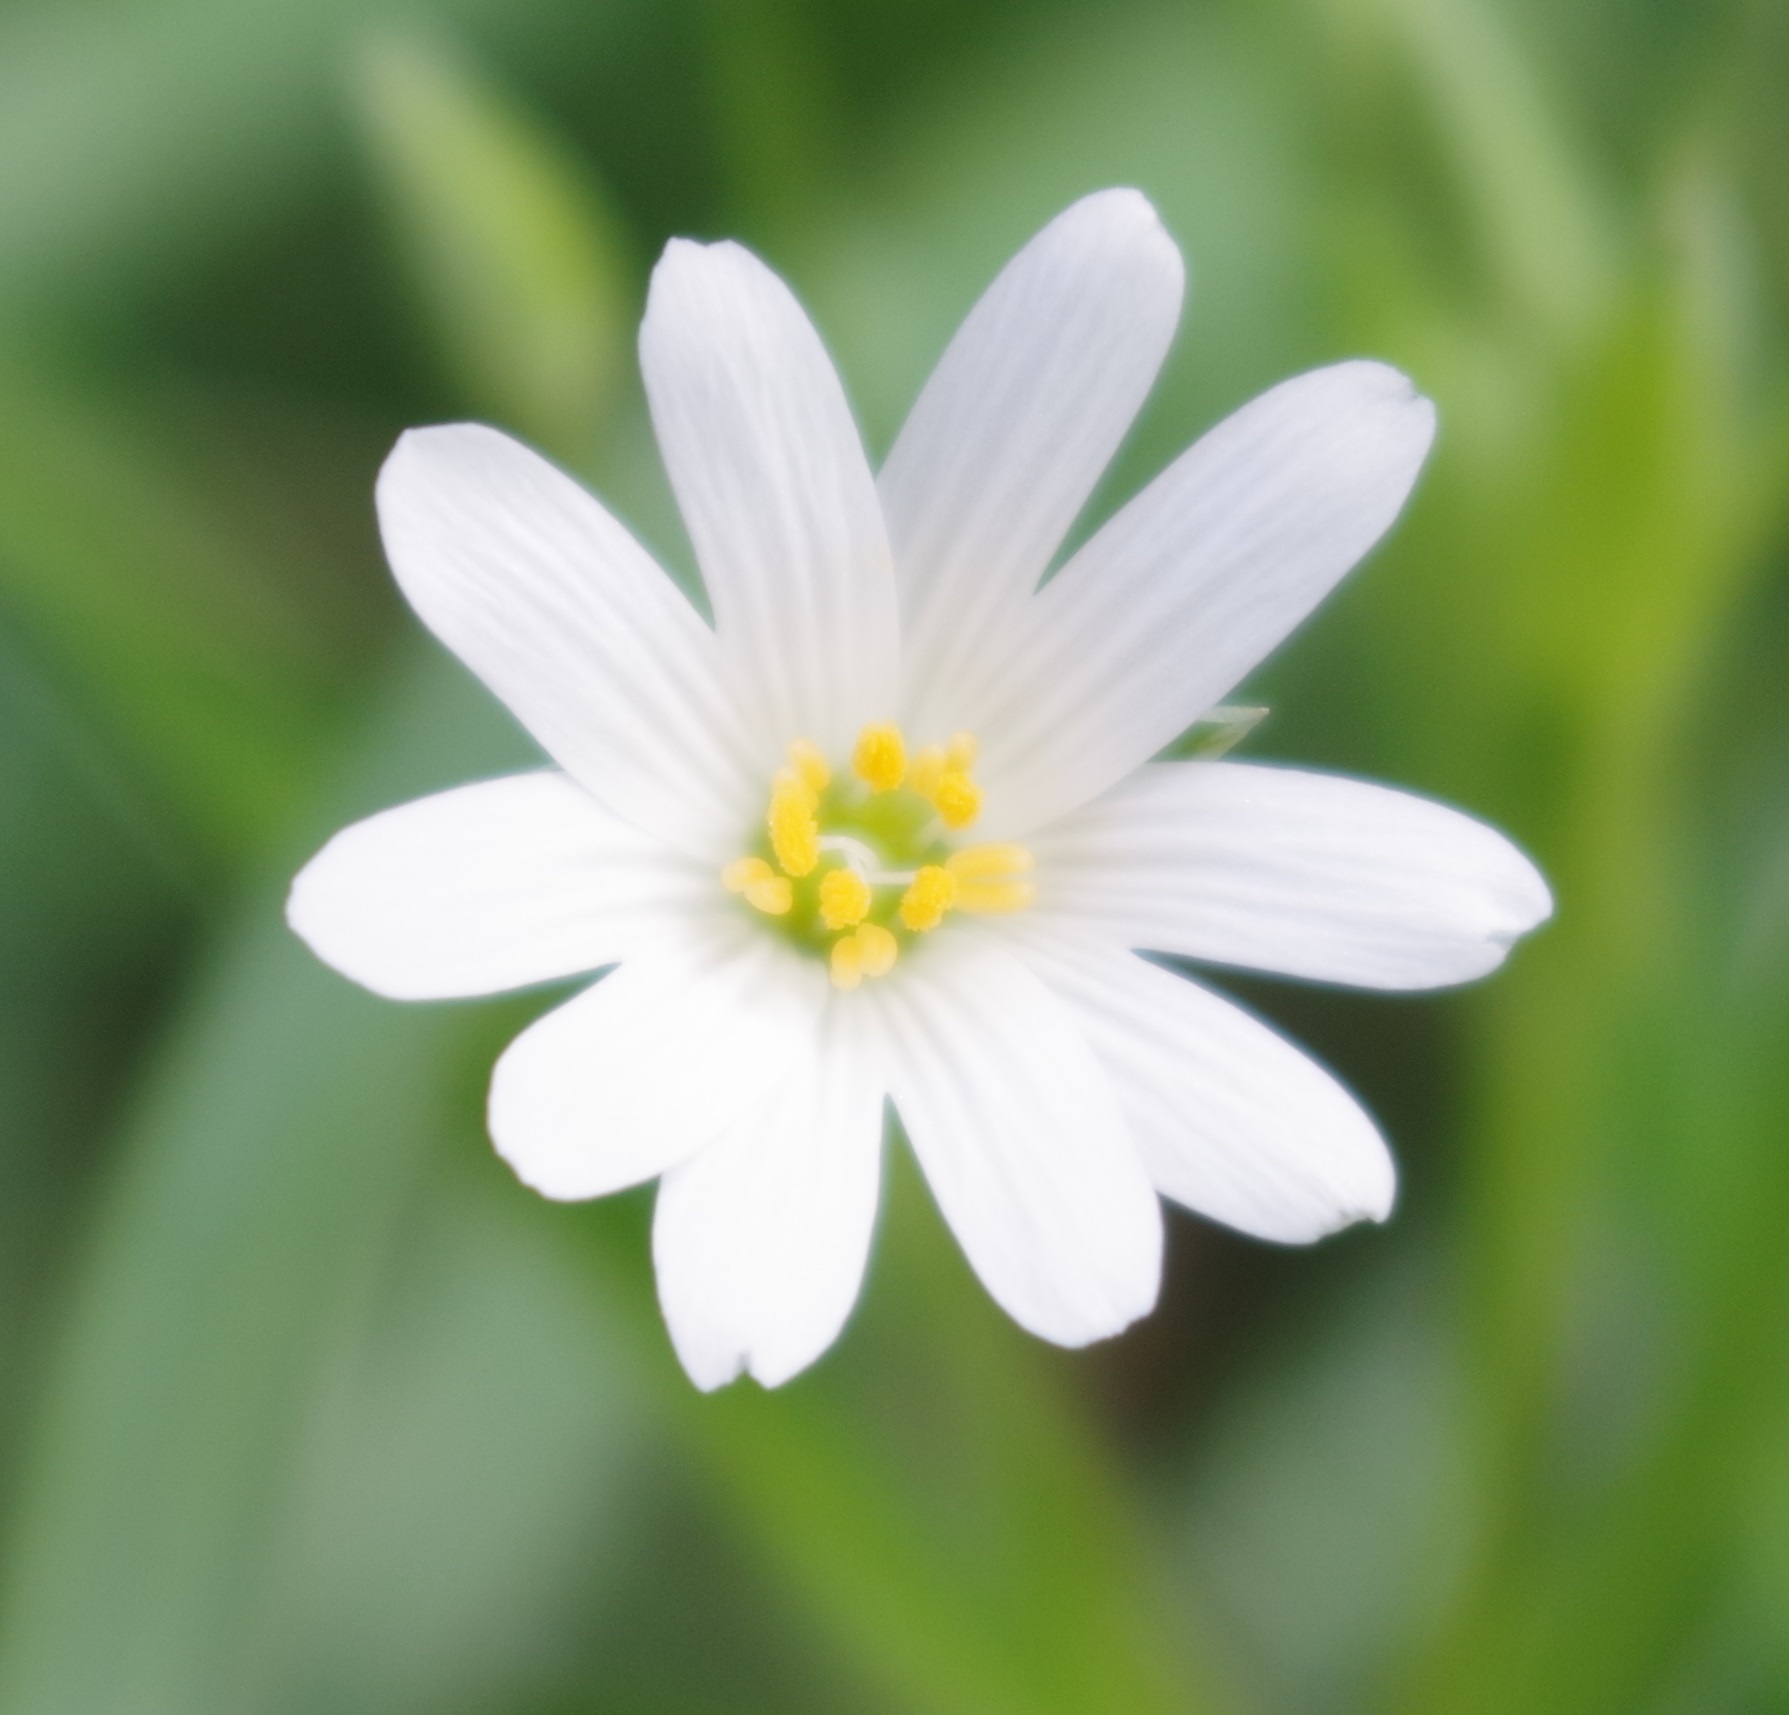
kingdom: Plantae
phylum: Tracheophyta
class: Magnoliopsida
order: Caryophyllales
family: Caryophyllaceae
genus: Rabelera
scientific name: Rabelera holostea
